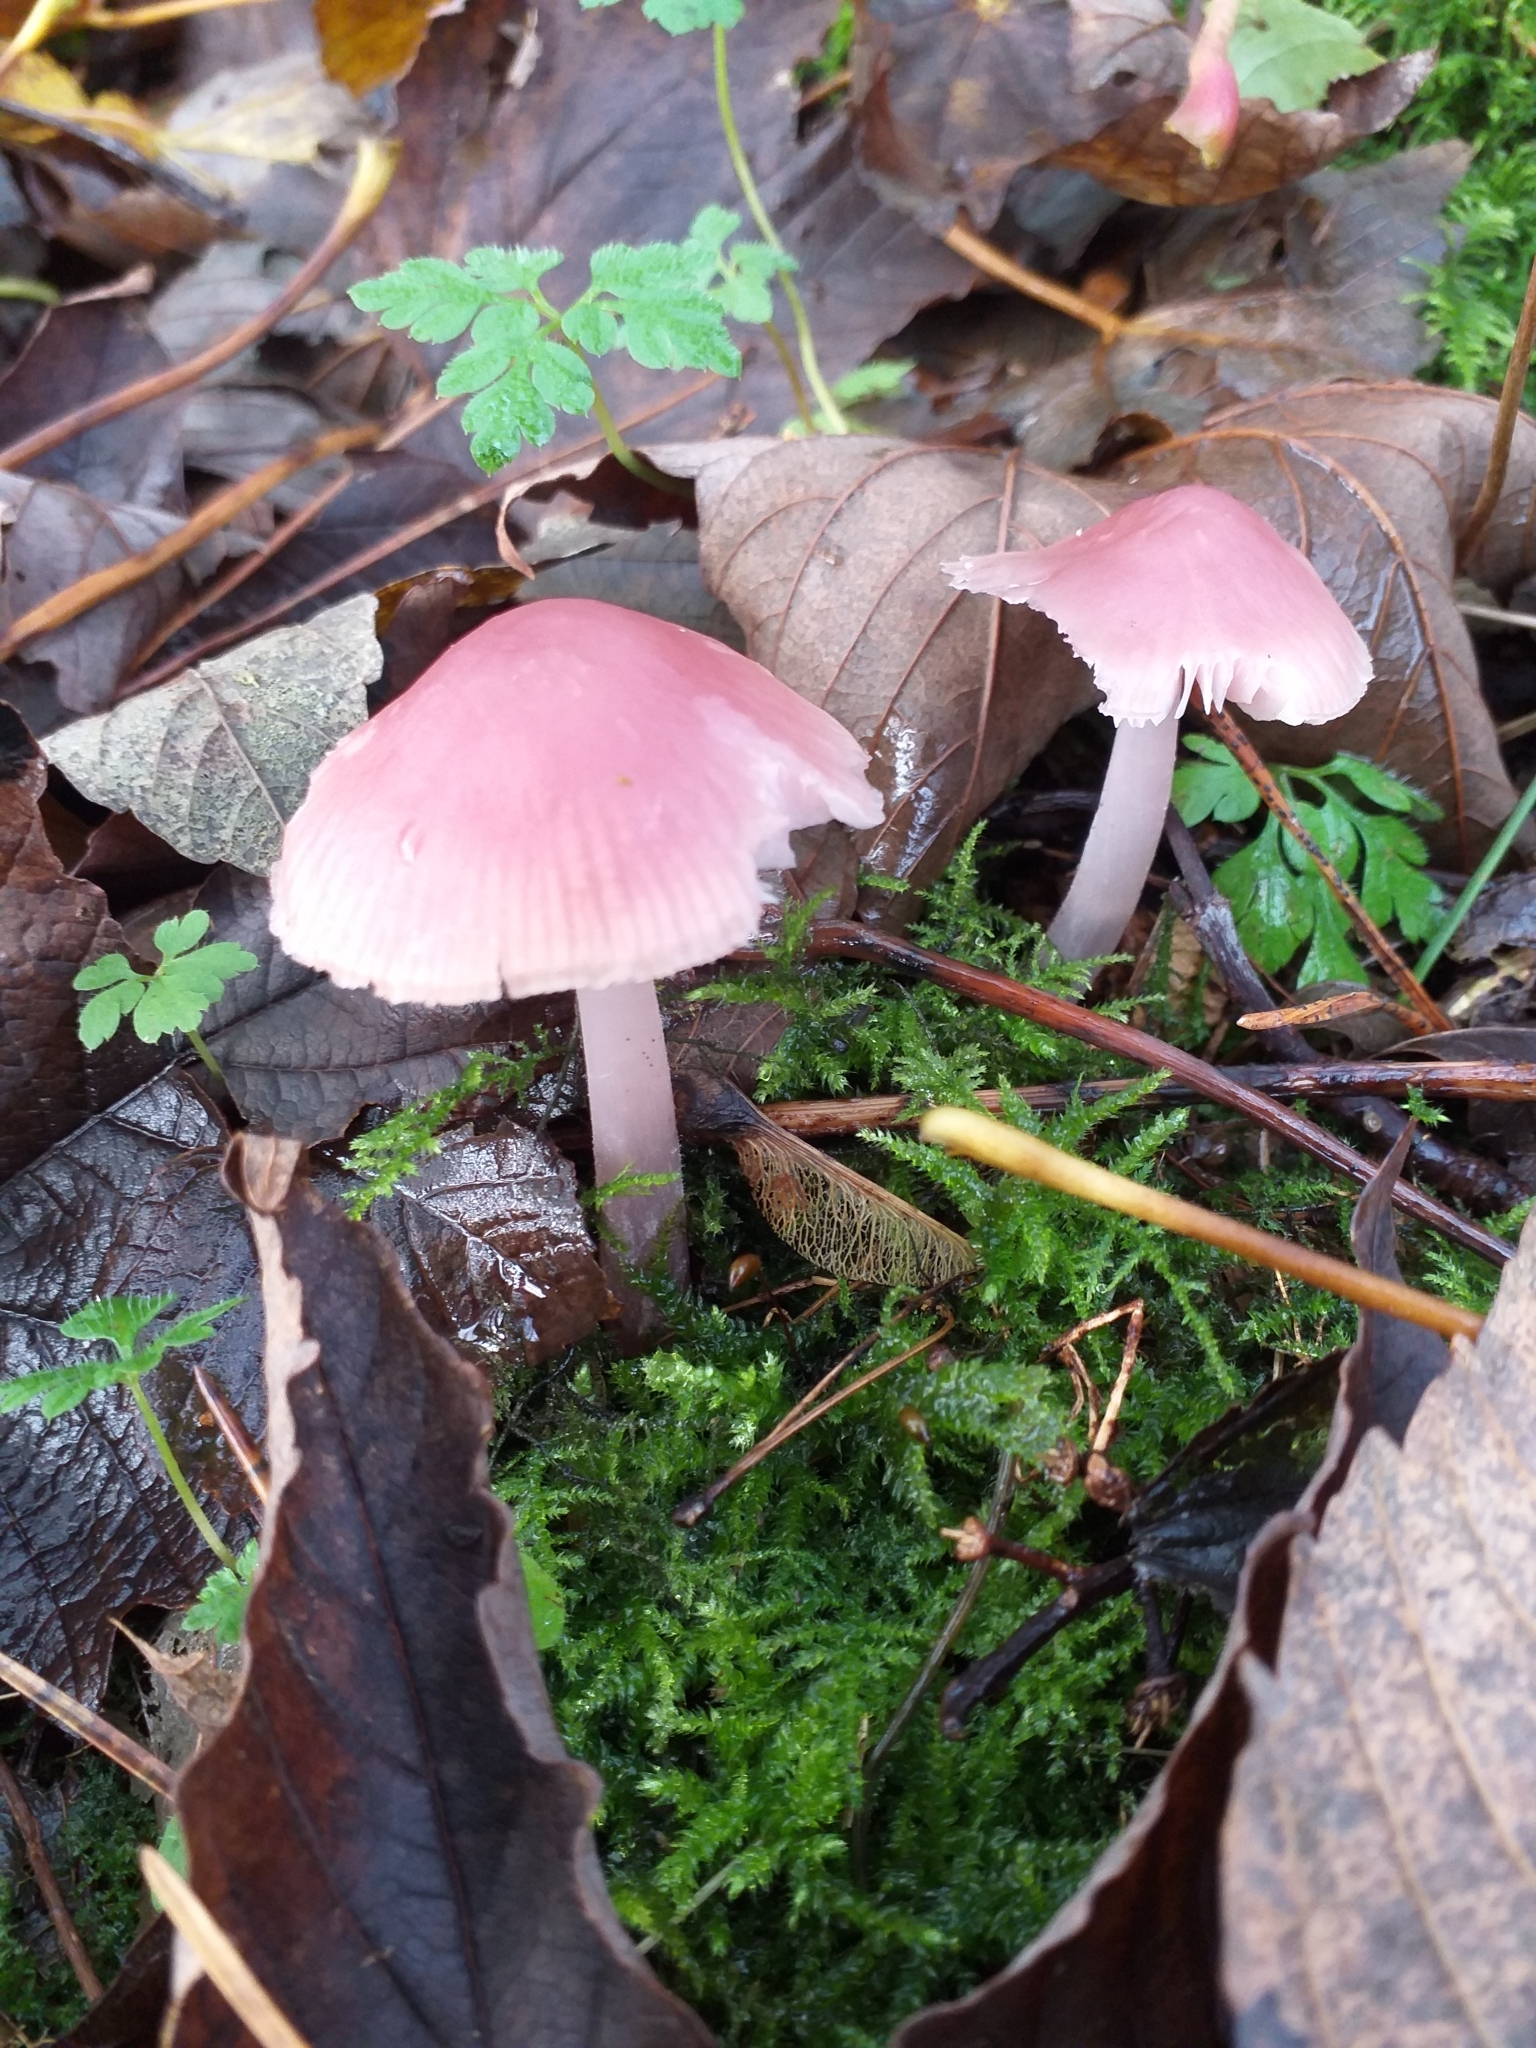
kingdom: Fungi
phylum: Basidiomycota
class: Agaricomycetes
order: Agaricales
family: Mycenaceae
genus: Mycena
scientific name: Mycena rosea
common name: Rosy bonnet
